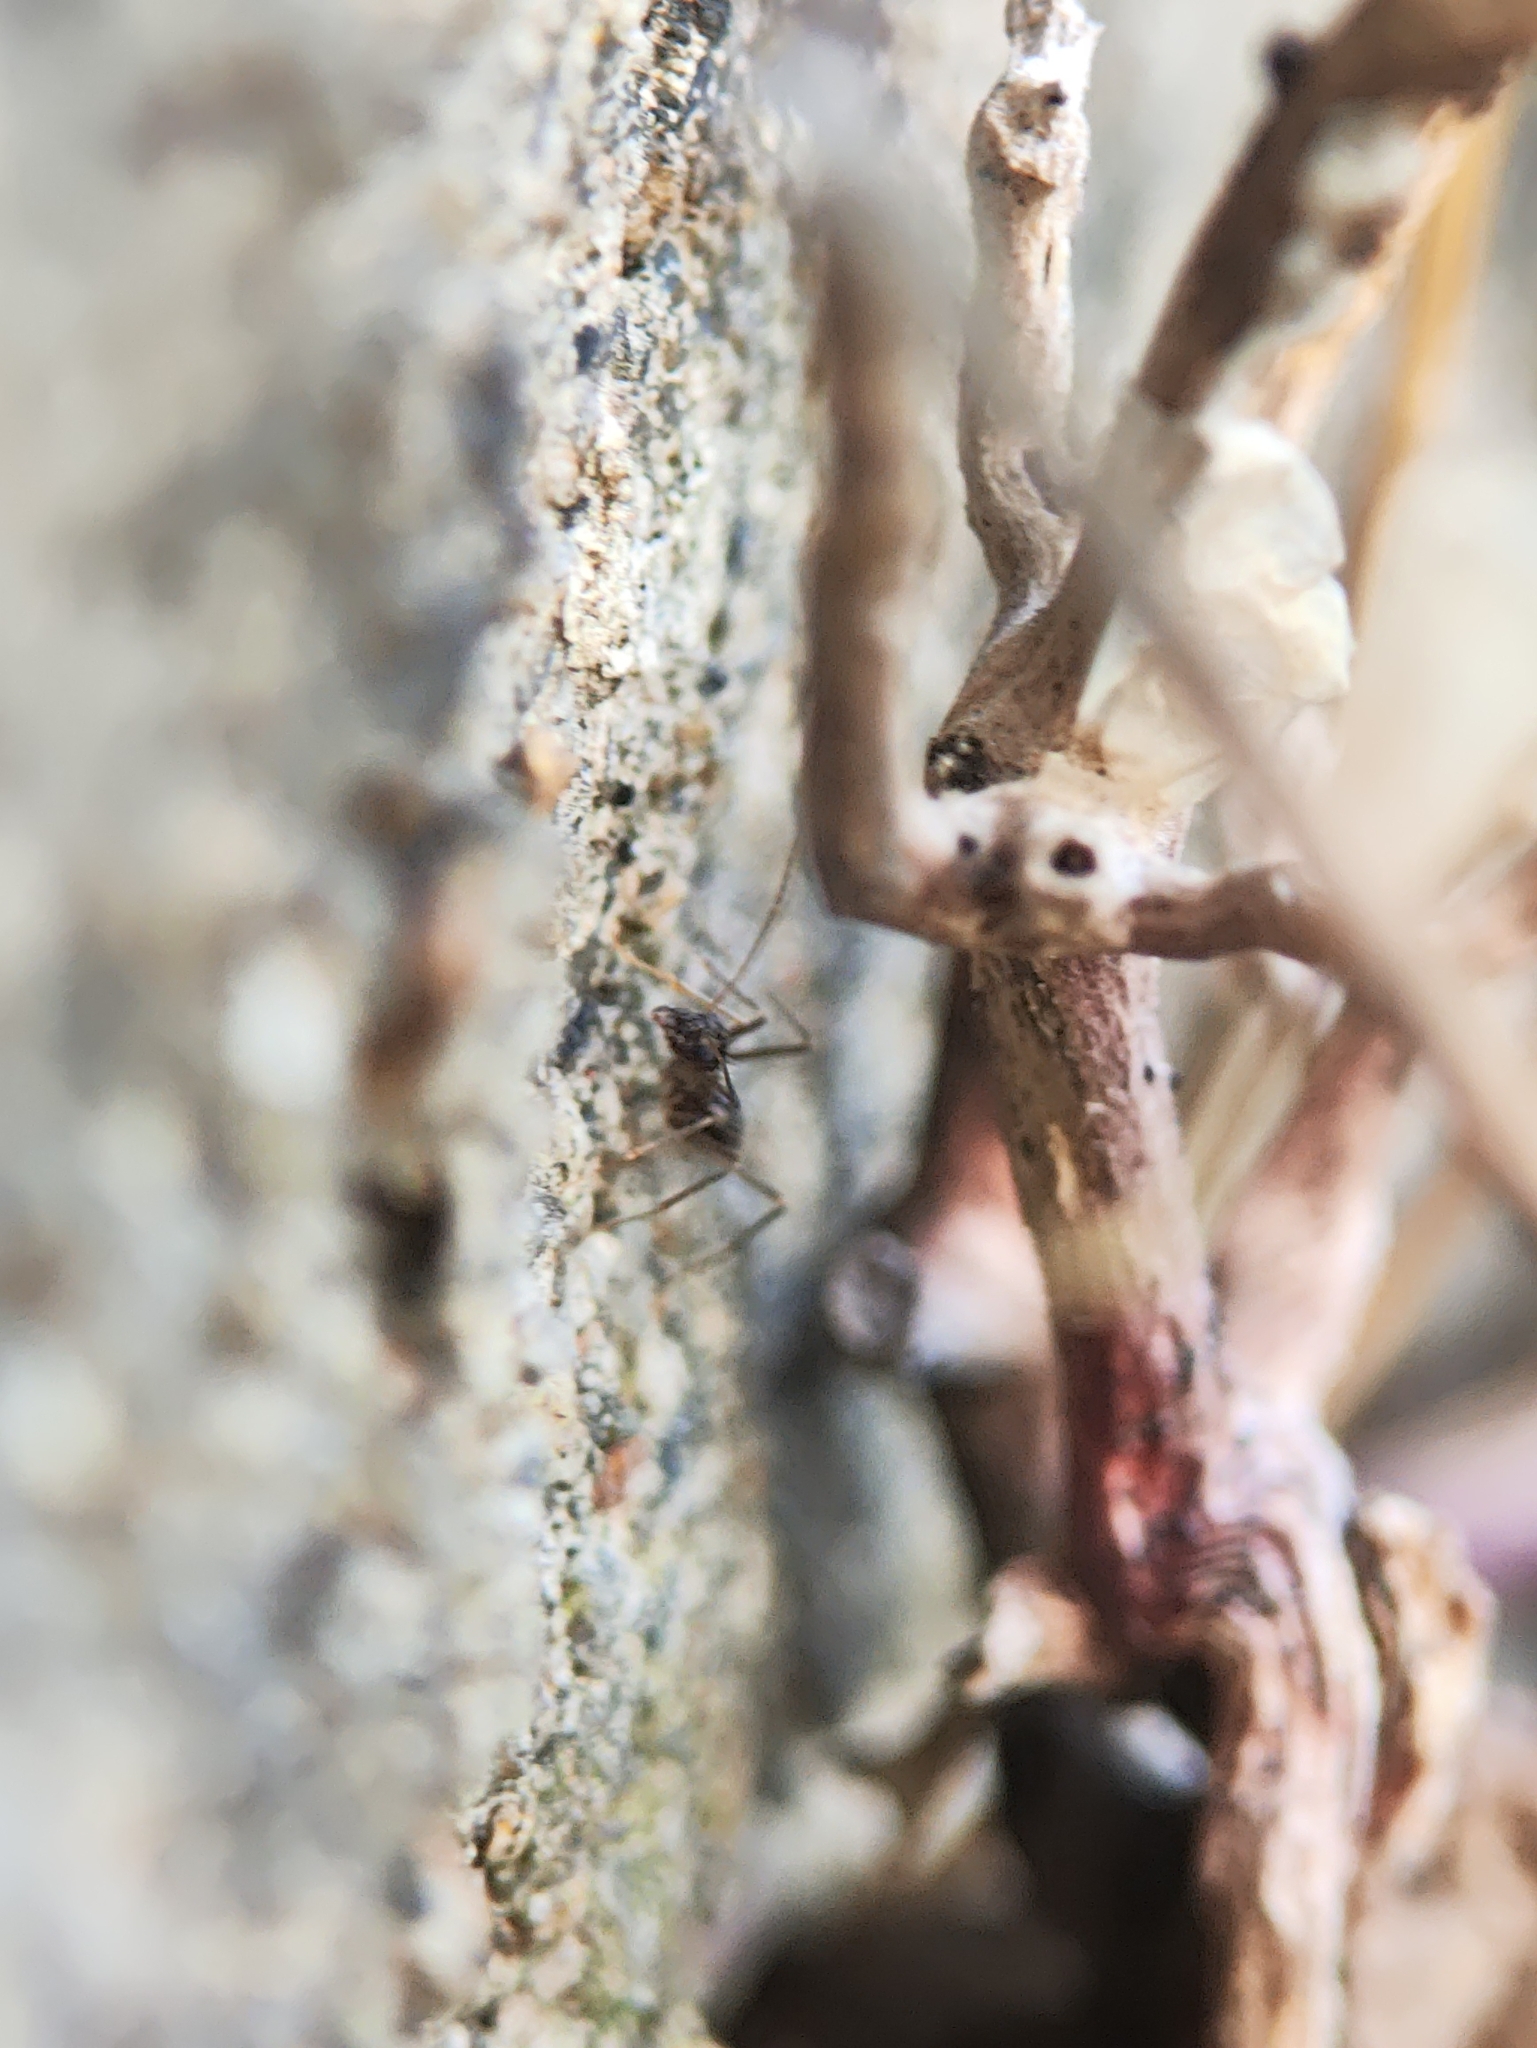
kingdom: Animalia
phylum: Arthropoda
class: Insecta
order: Hymenoptera
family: Formicidae
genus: Paratrechina
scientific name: Paratrechina longicornis
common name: Longhorned crazy ant
